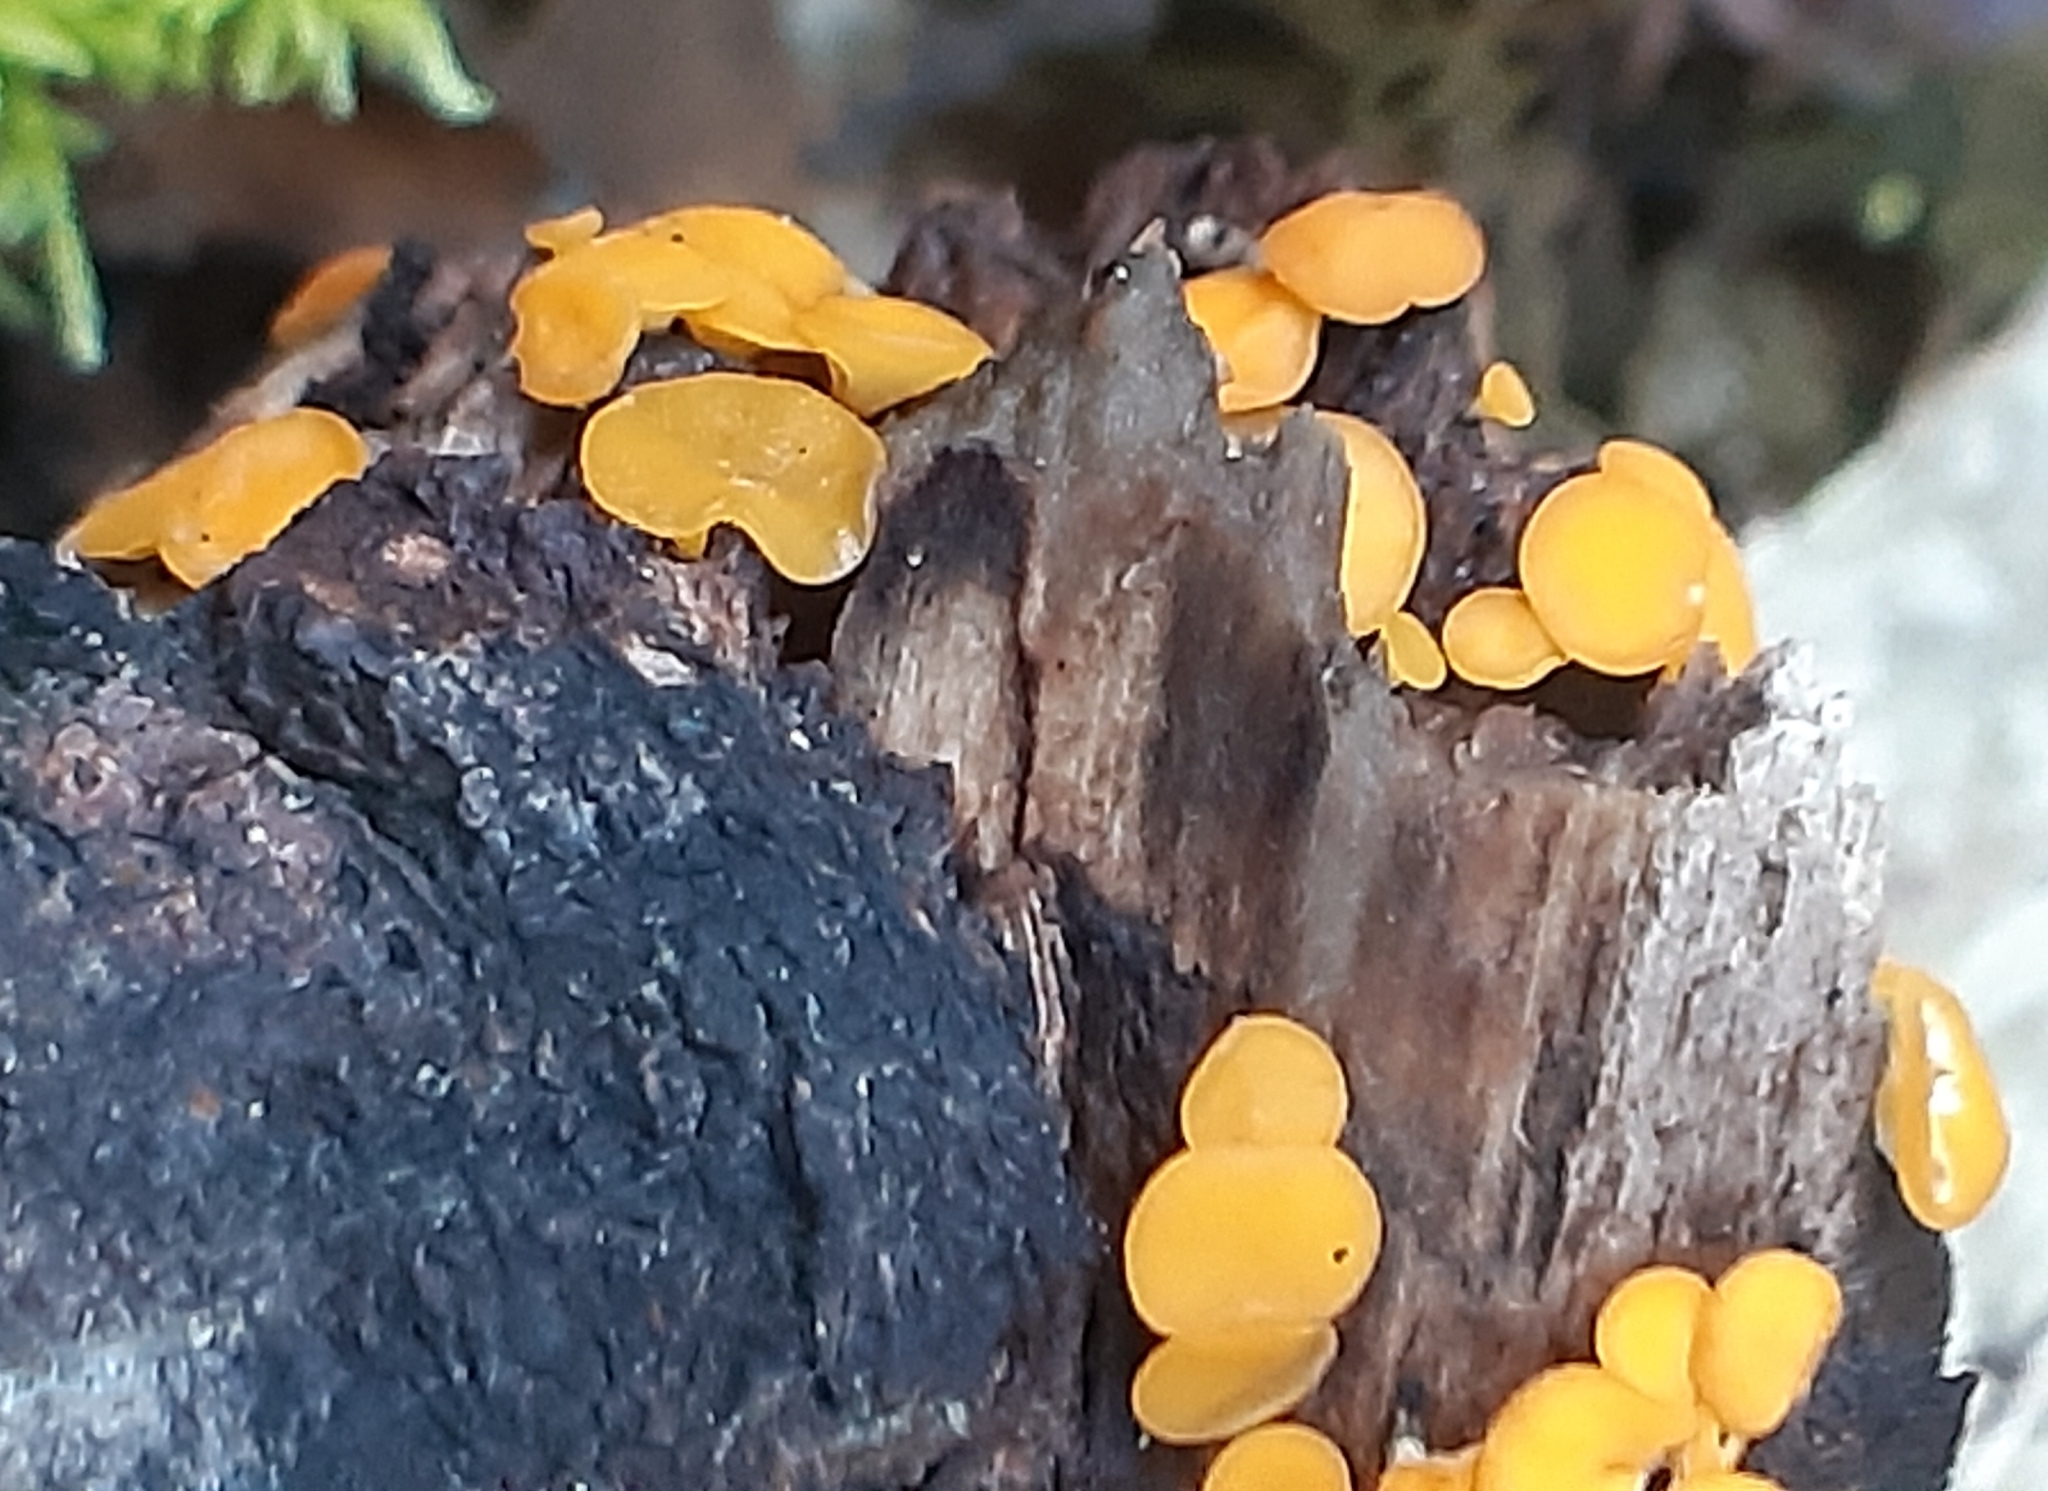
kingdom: Fungi
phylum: Ascomycota
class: Leotiomycetes
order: Helotiales
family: Pezizellaceae
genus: Calycina
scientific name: Calycina citrina
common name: Yellow fairy cups
